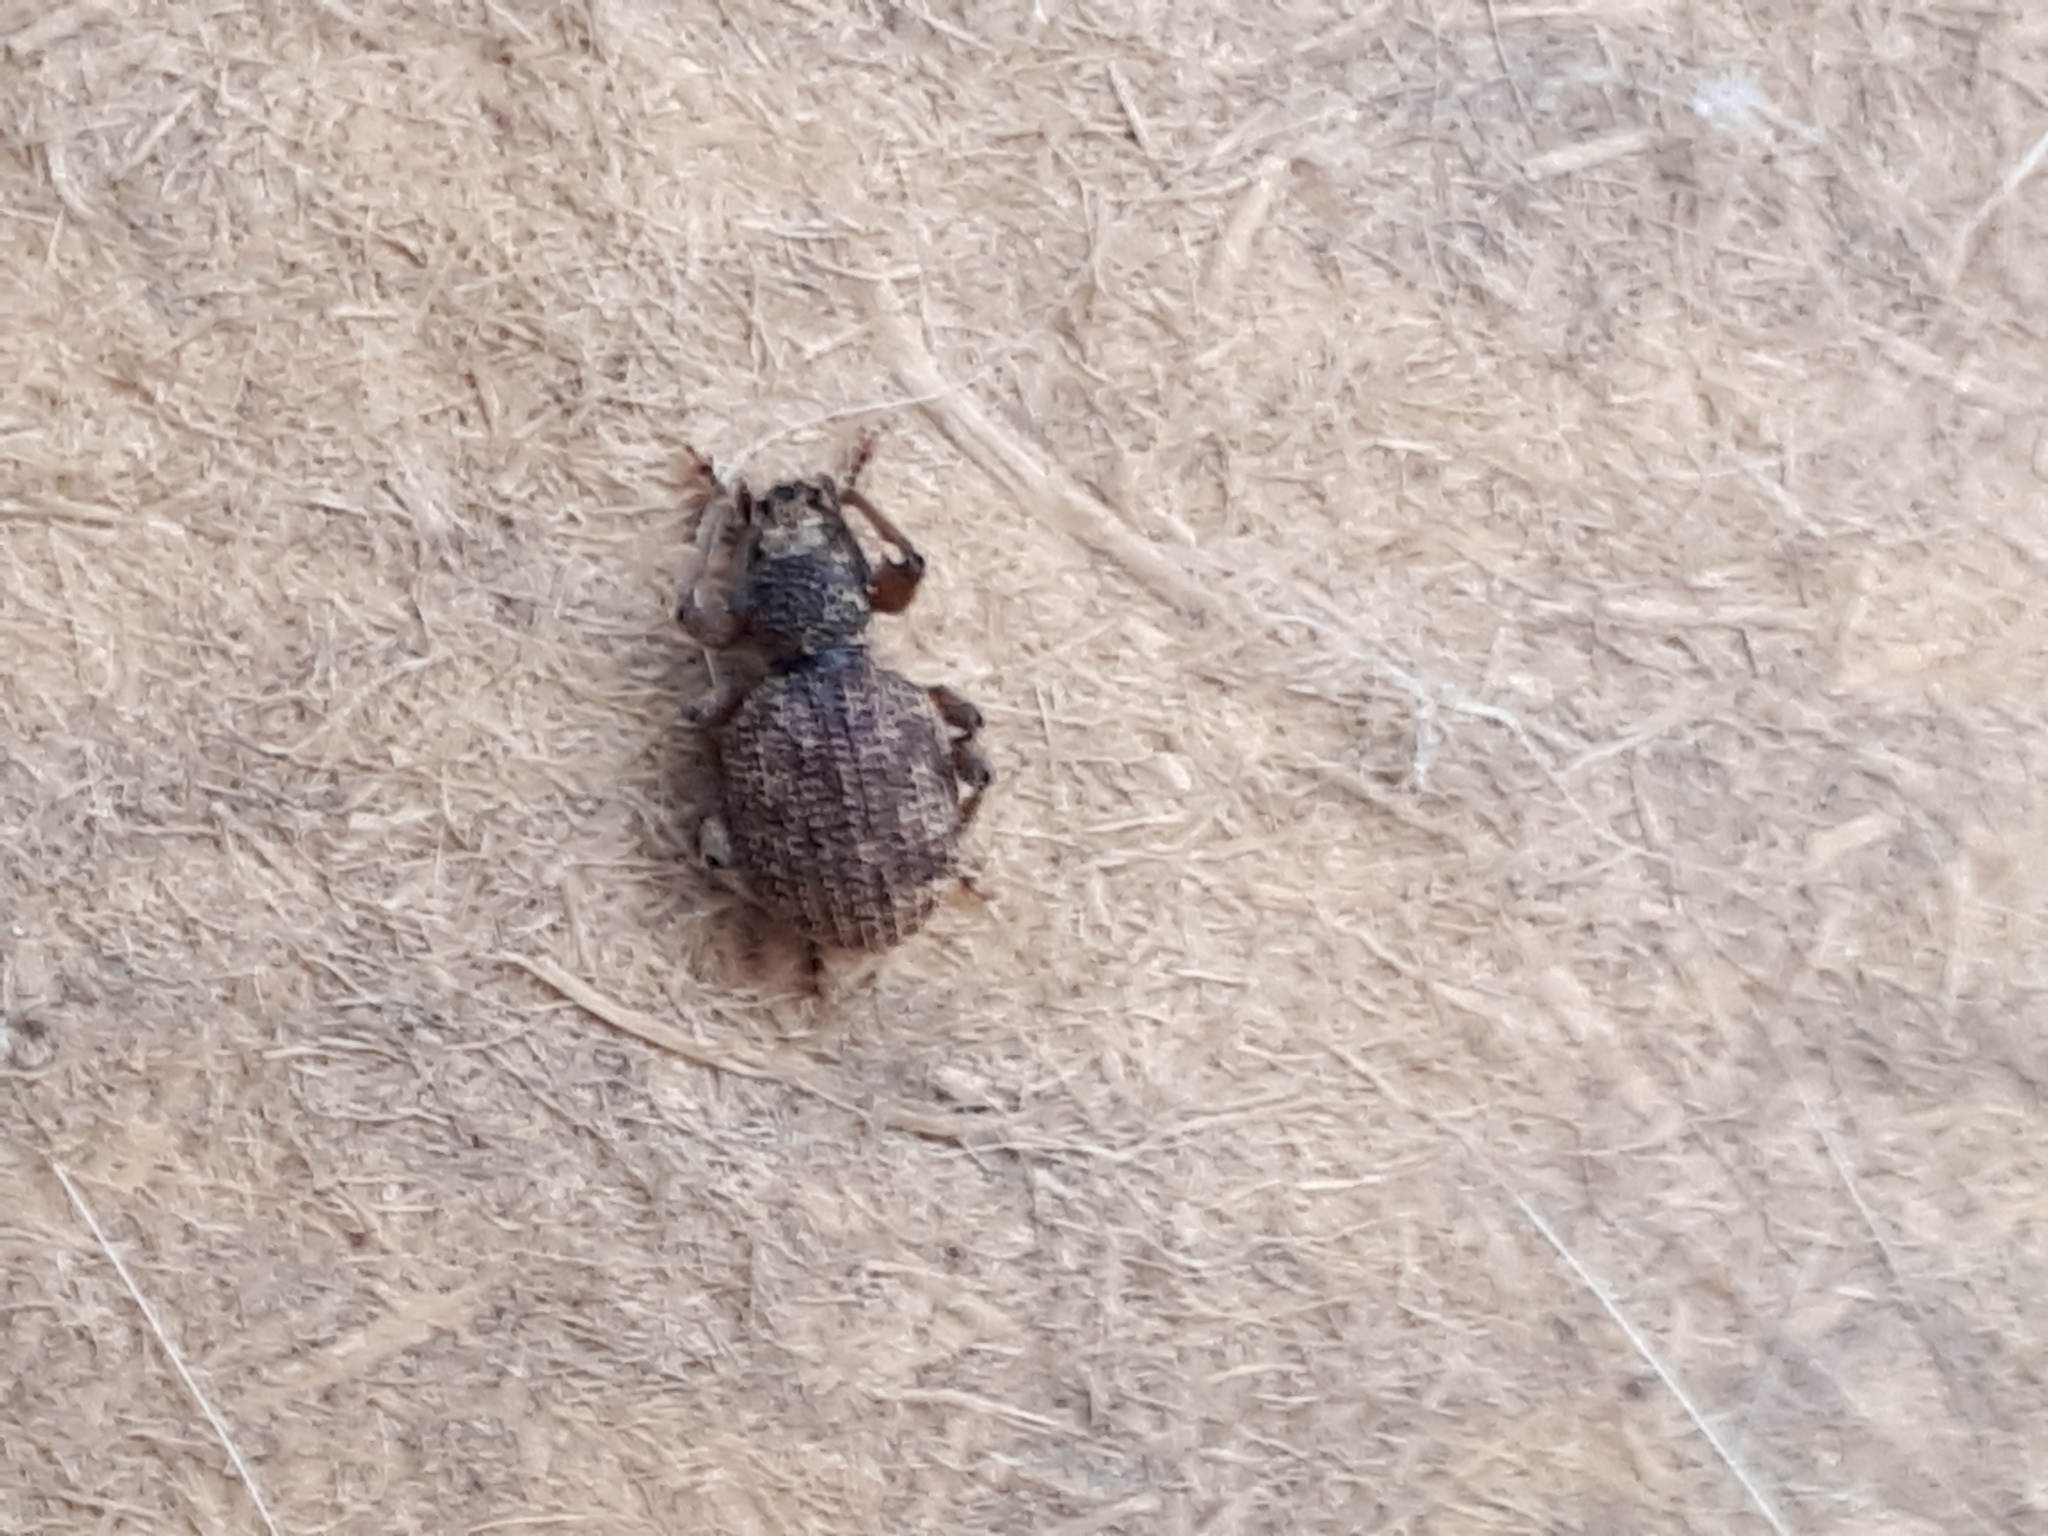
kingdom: Animalia
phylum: Arthropoda
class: Insecta
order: Coleoptera
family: Curculionidae
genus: Otiorhynchus
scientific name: Otiorhynchus crataegi
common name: Privet weevil
